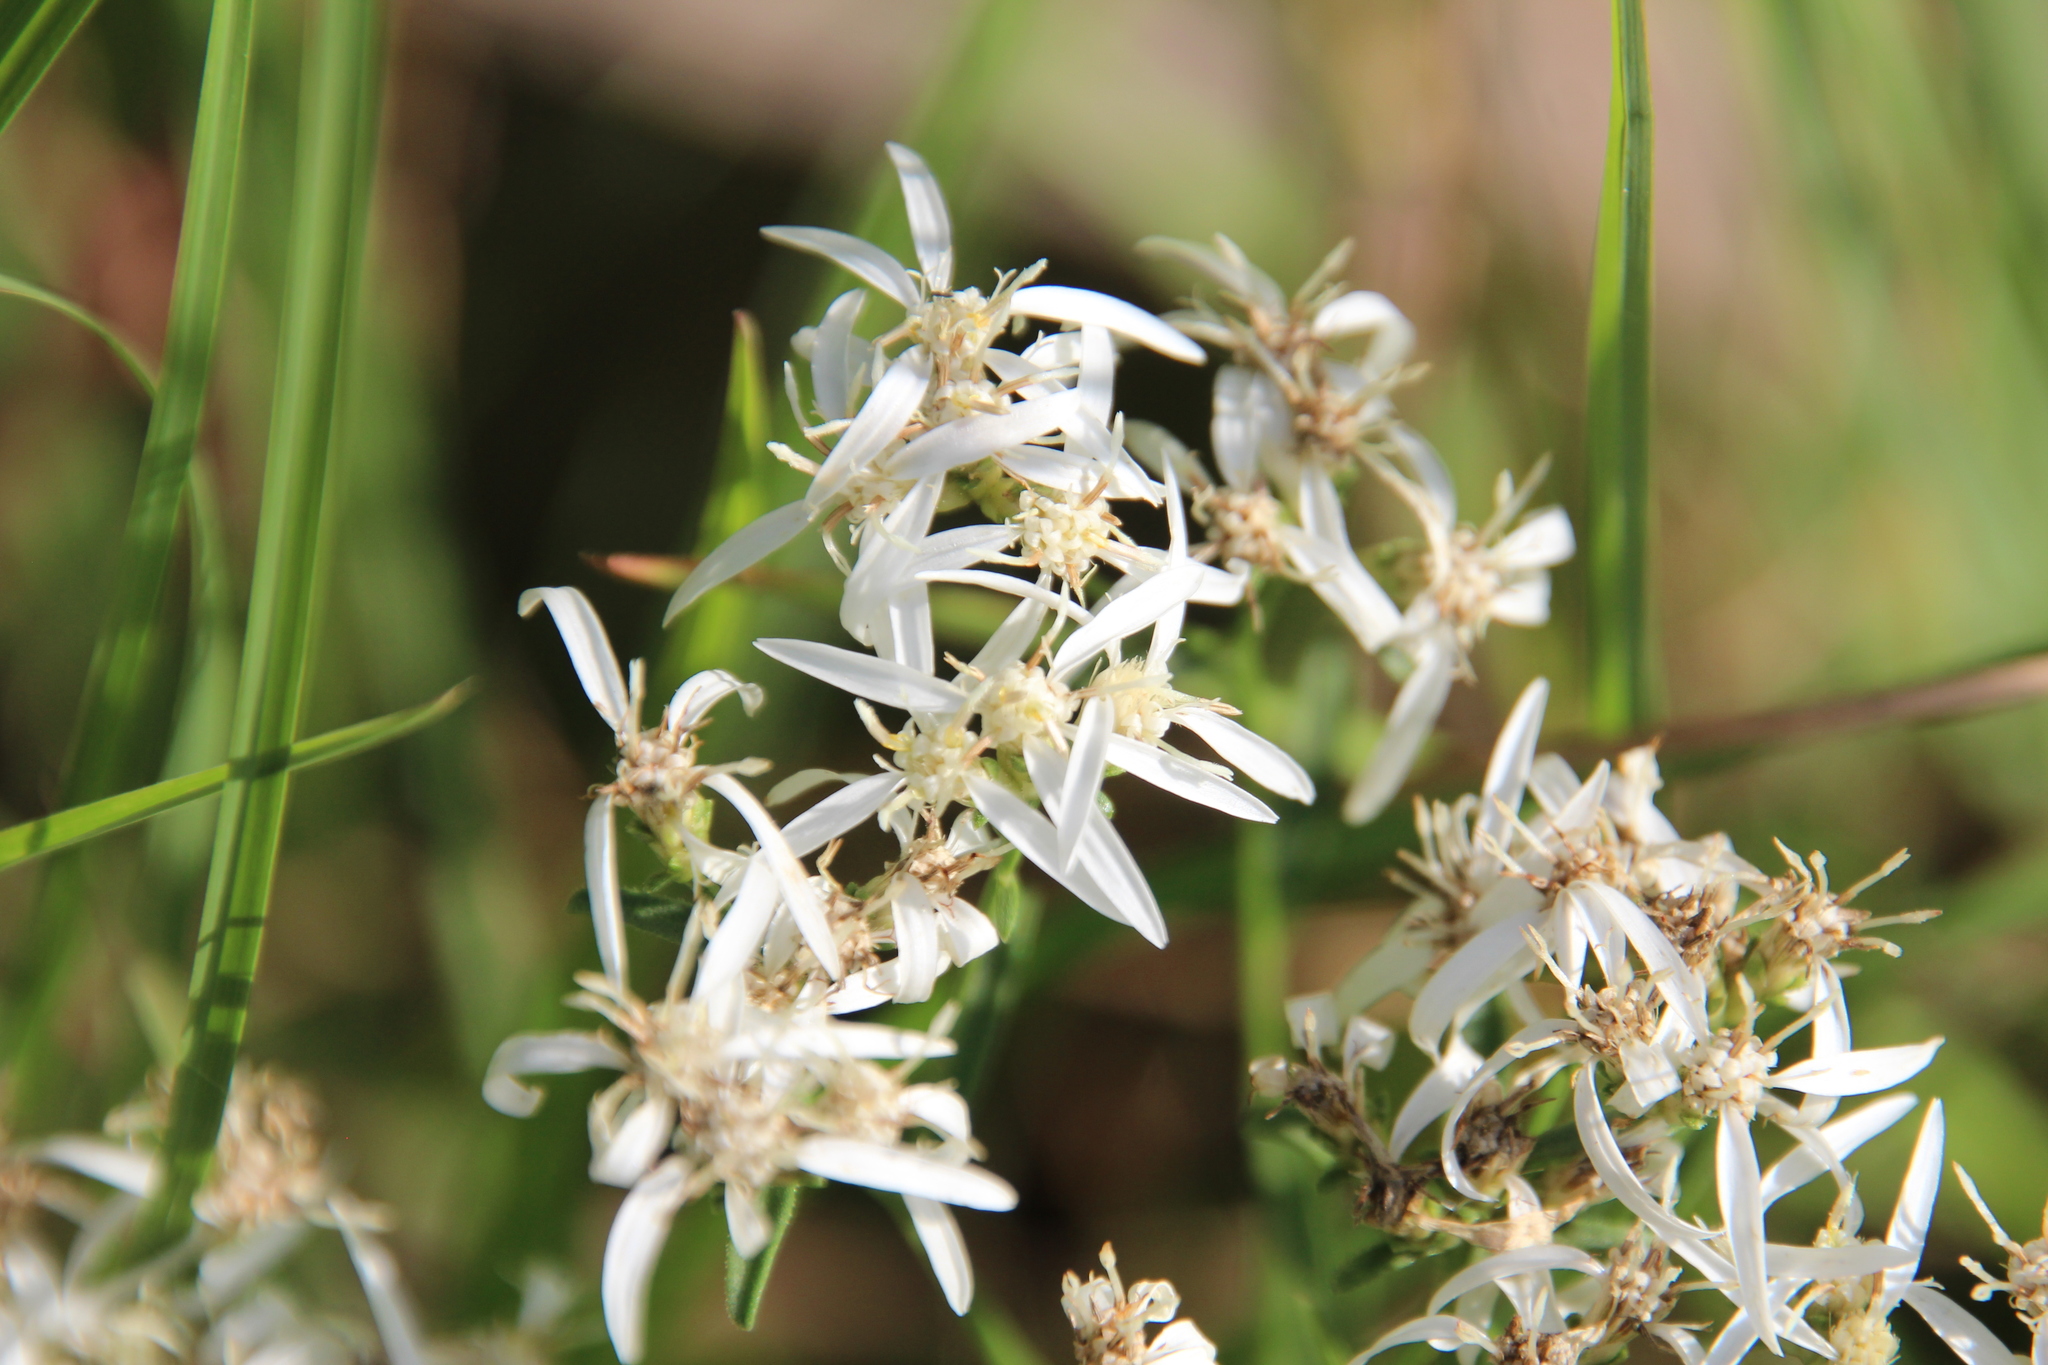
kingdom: Plantae
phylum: Tracheophyta
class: Magnoliopsida
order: Asterales
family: Asteraceae
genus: Sericocarpus
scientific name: Sericocarpus linifolius
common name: Narrow-leaf aster
